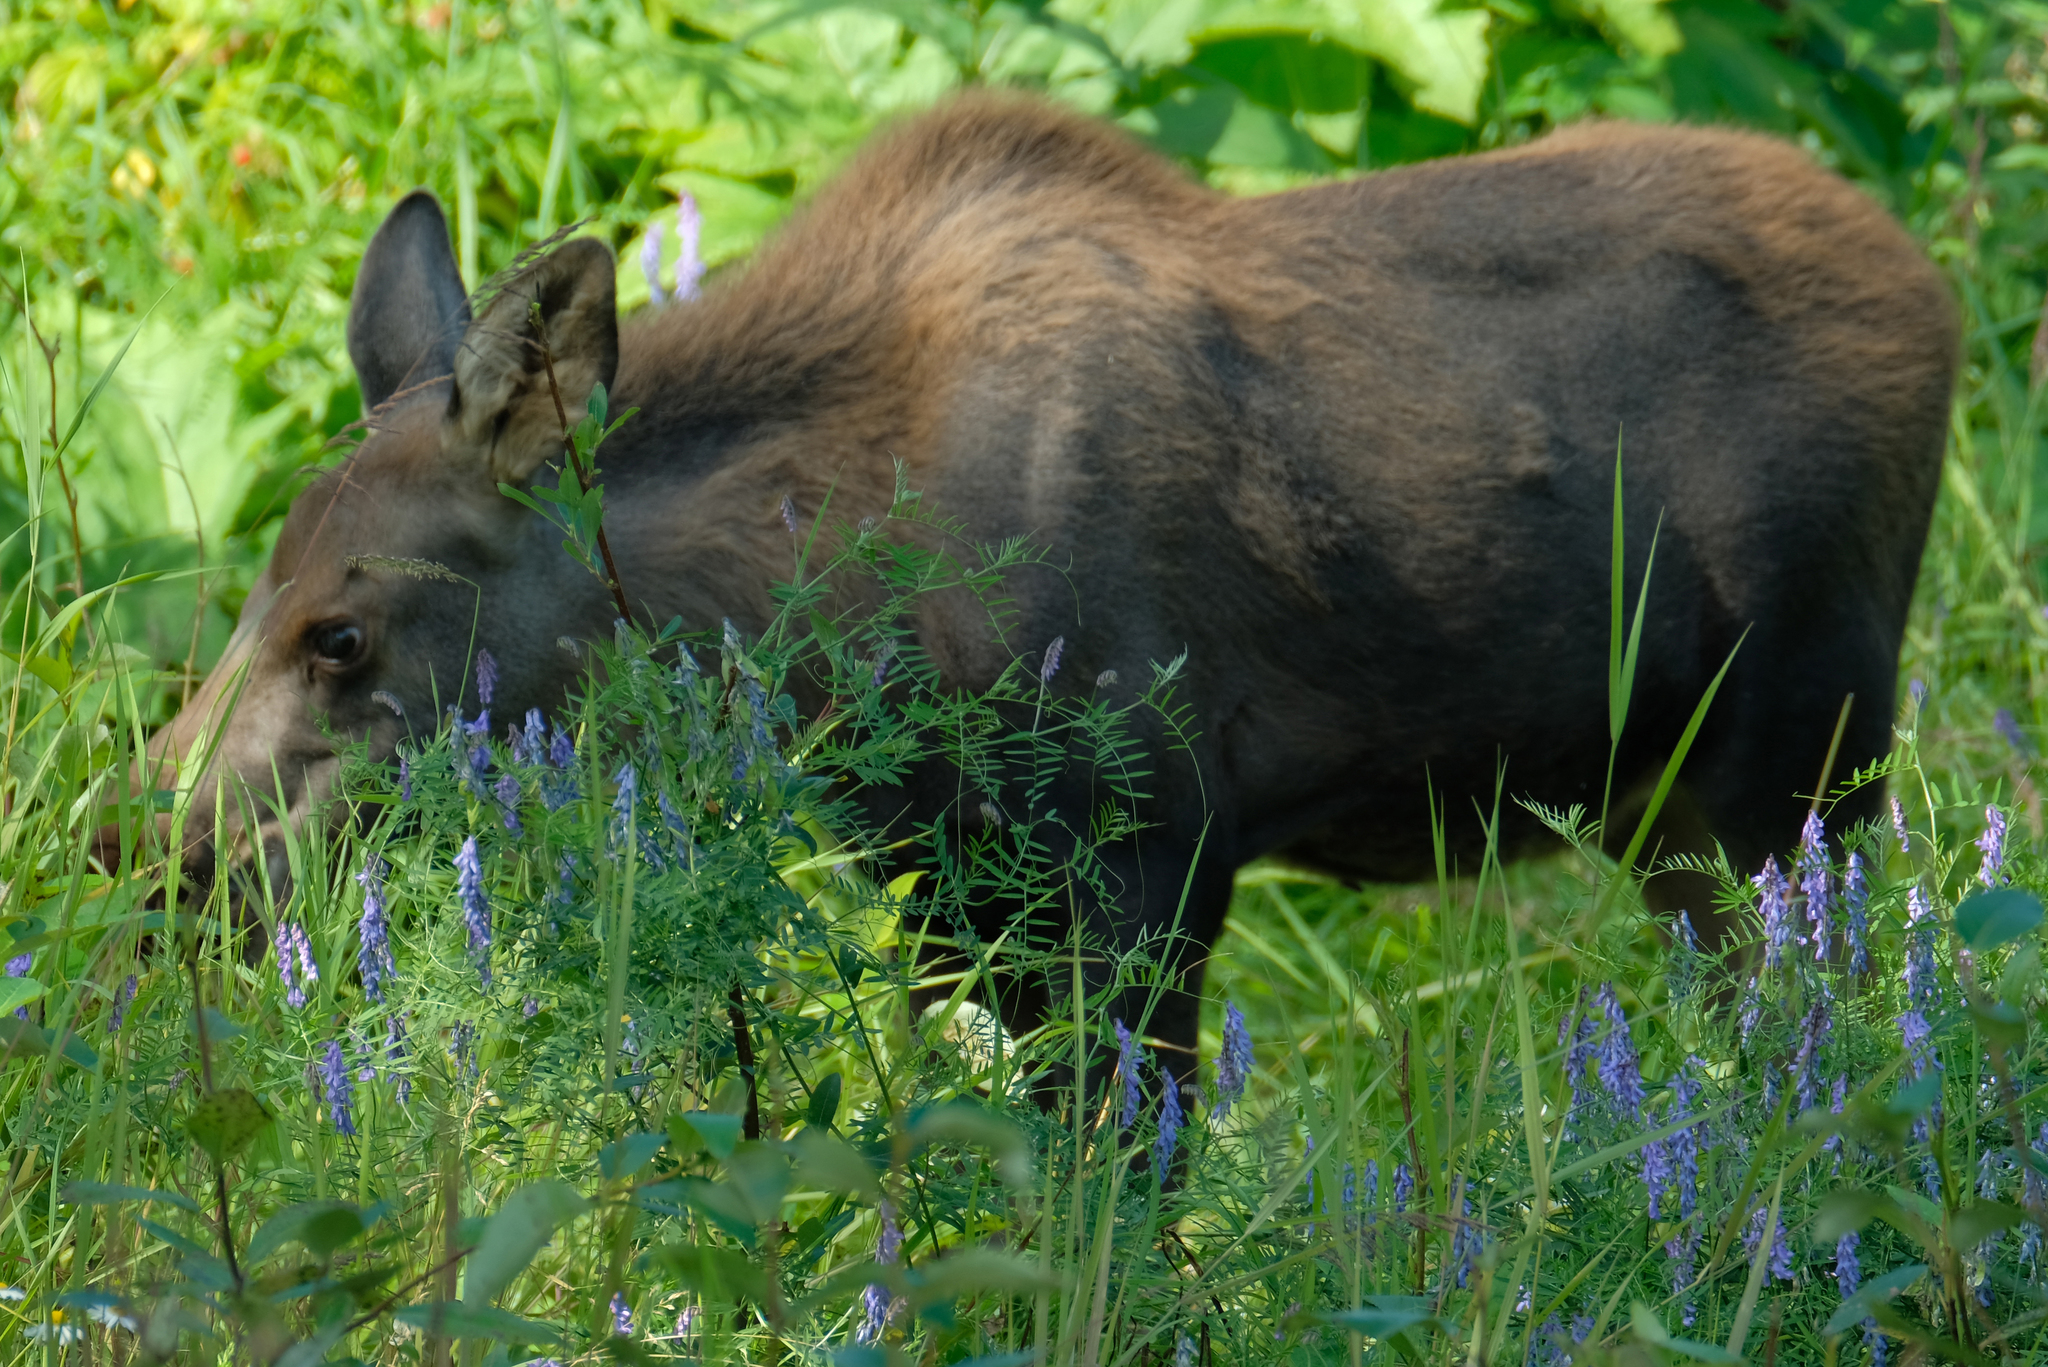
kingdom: Animalia
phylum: Chordata
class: Mammalia
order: Artiodactyla
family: Cervidae
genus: Alces
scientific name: Alces alces
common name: Moose
